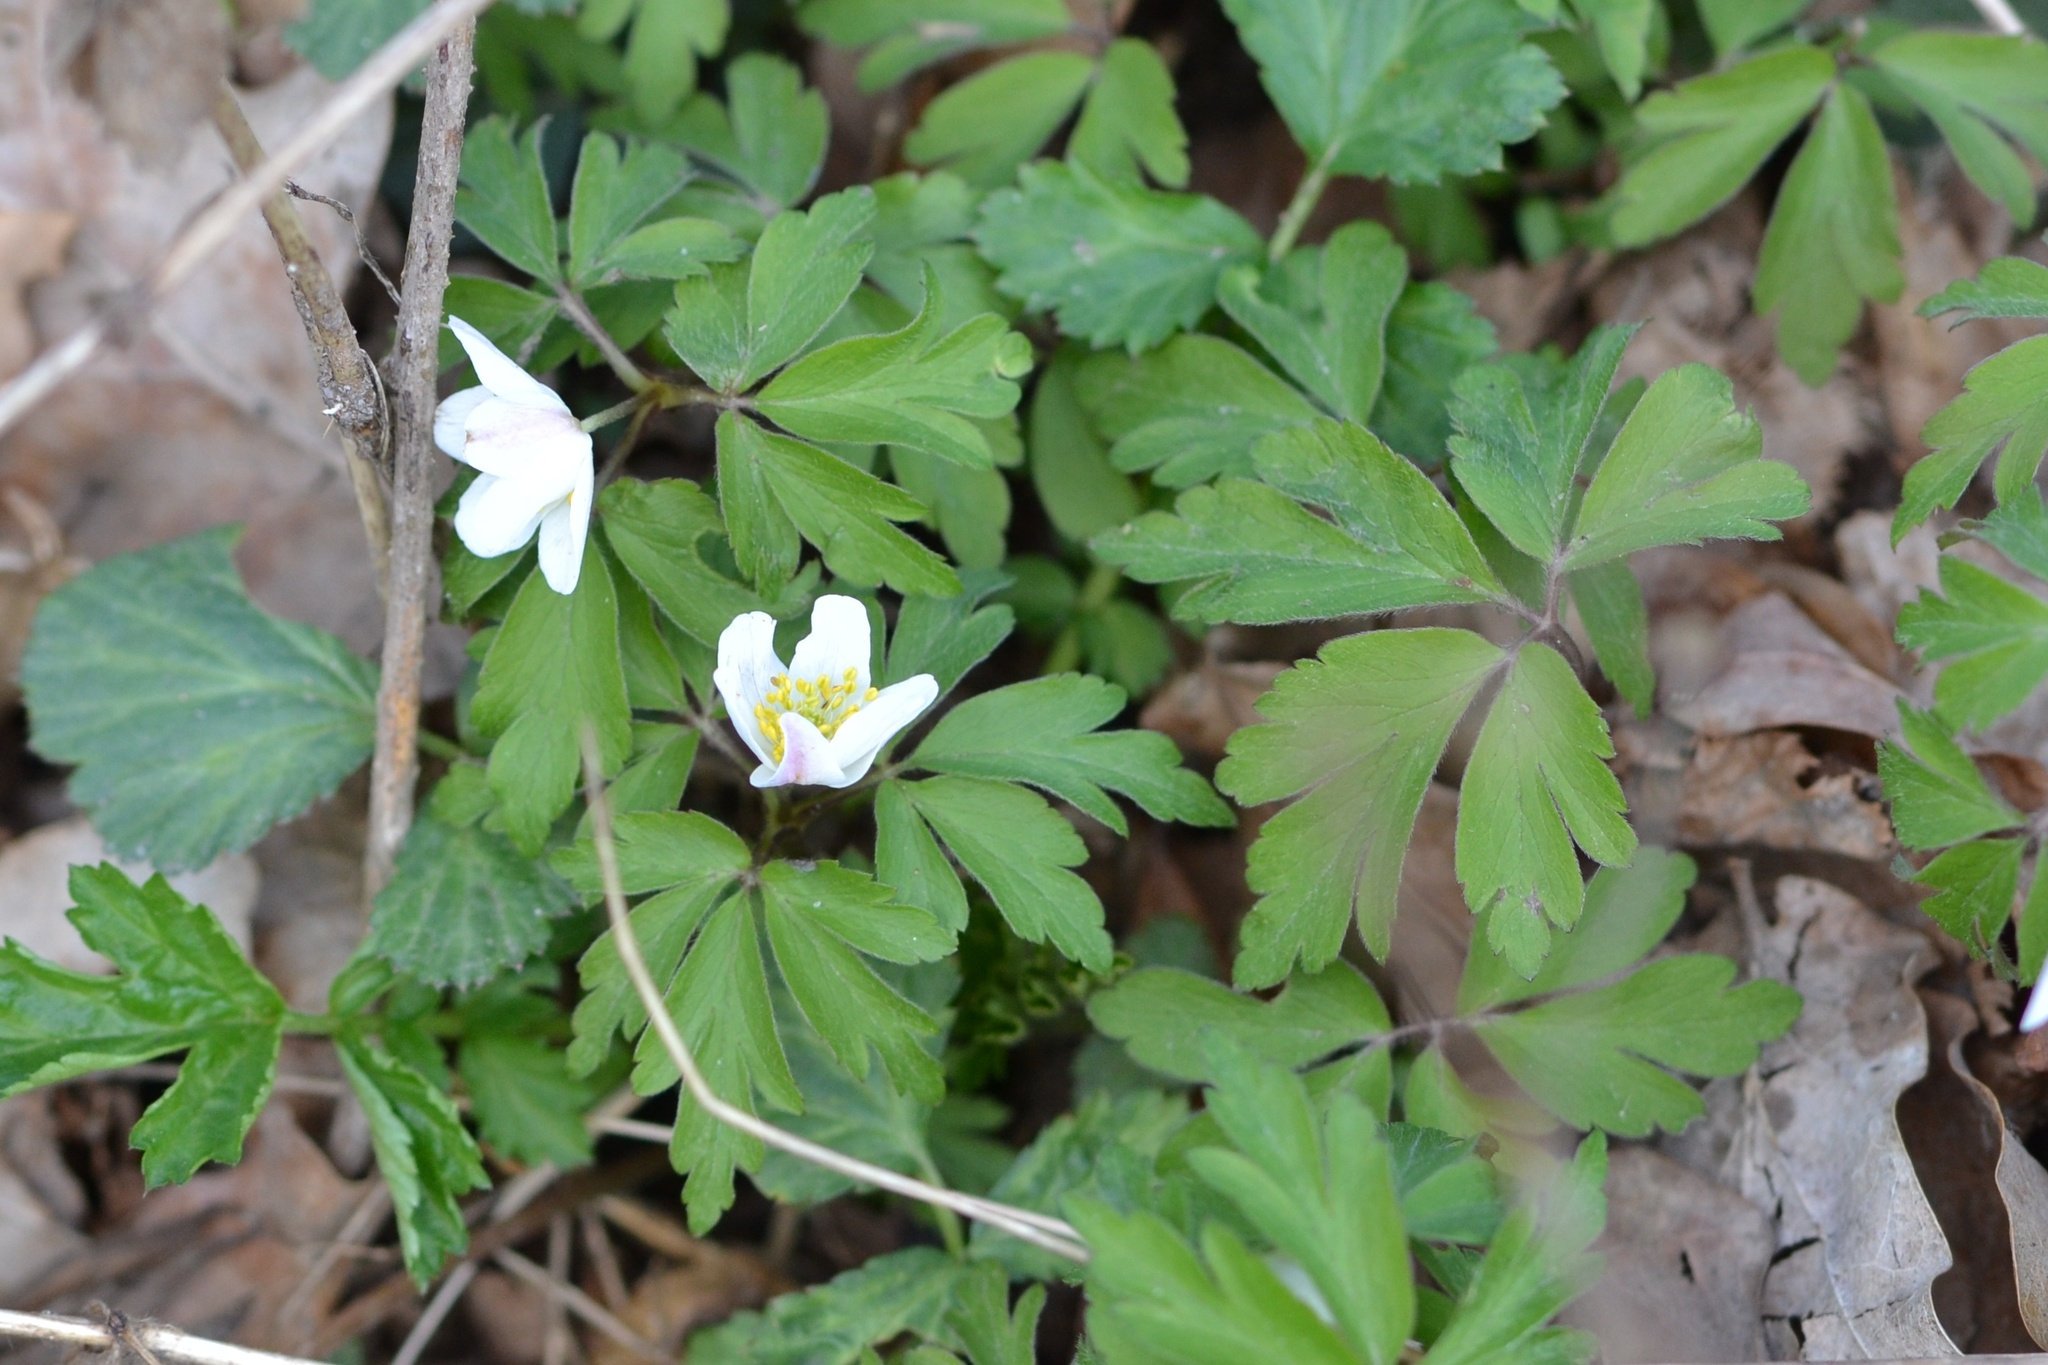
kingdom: Plantae
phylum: Tracheophyta
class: Magnoliopsida
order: Ranunculales
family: Ranunculaceae
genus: Anemone
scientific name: Anemone nemorosa
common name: Wood anemone
